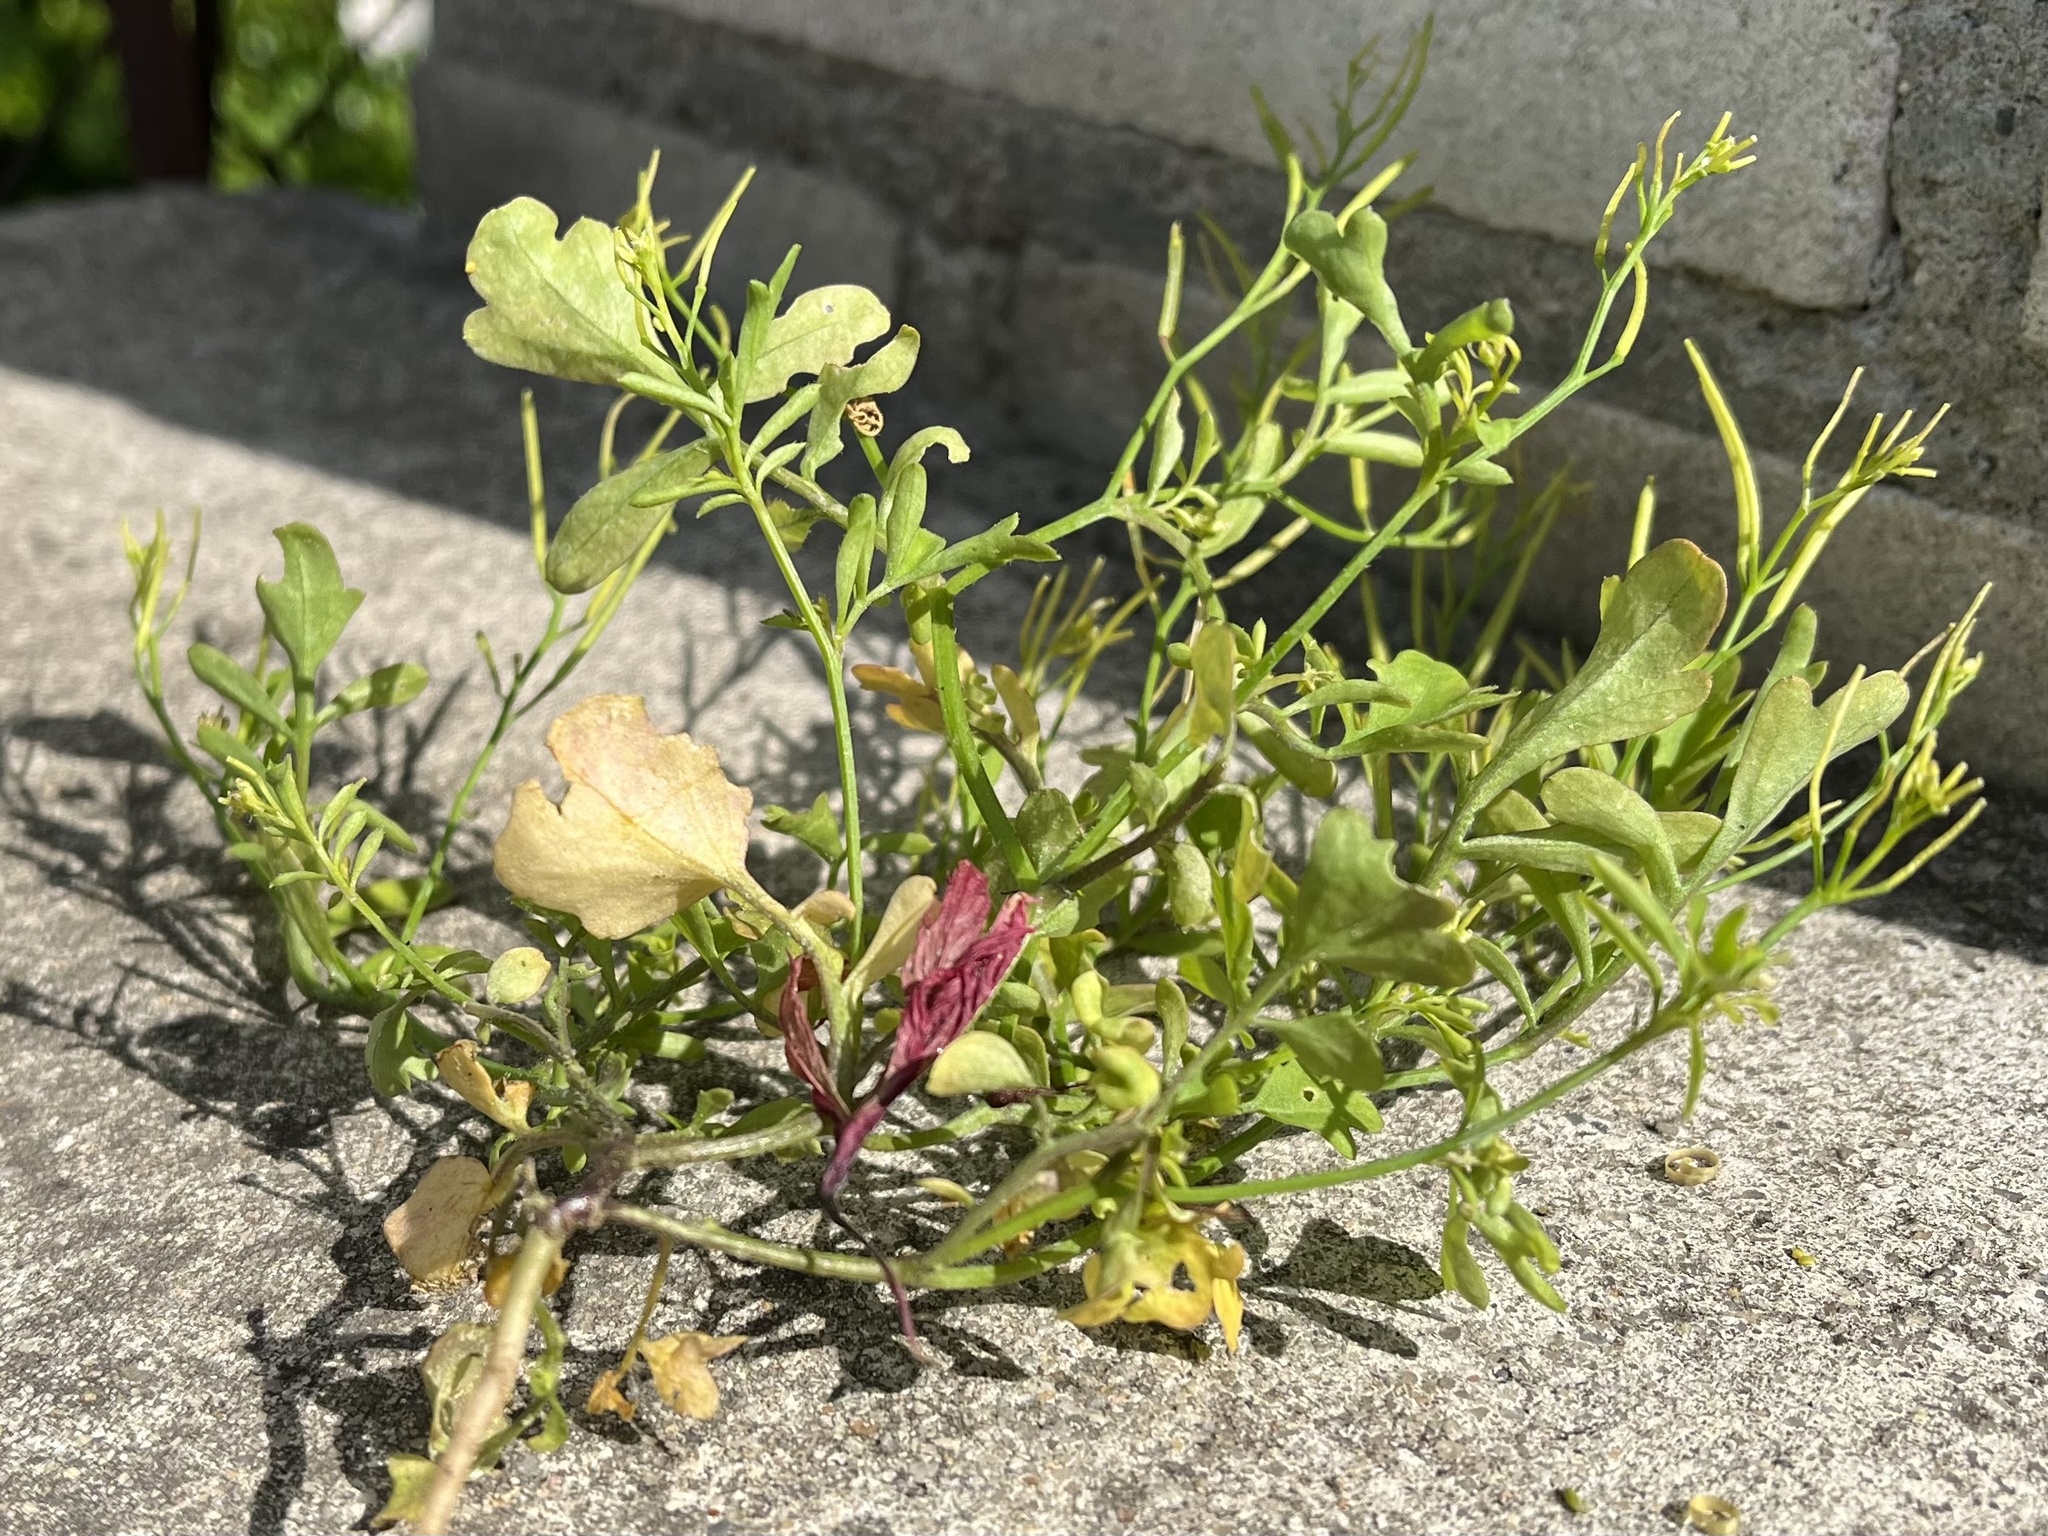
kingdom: Plantae
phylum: Tracheophyta
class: Magnoliopsida
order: Brassicales
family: Brassicaceae
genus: Cardamine
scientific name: Cardamine occulta
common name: Asian wavy bittercress
